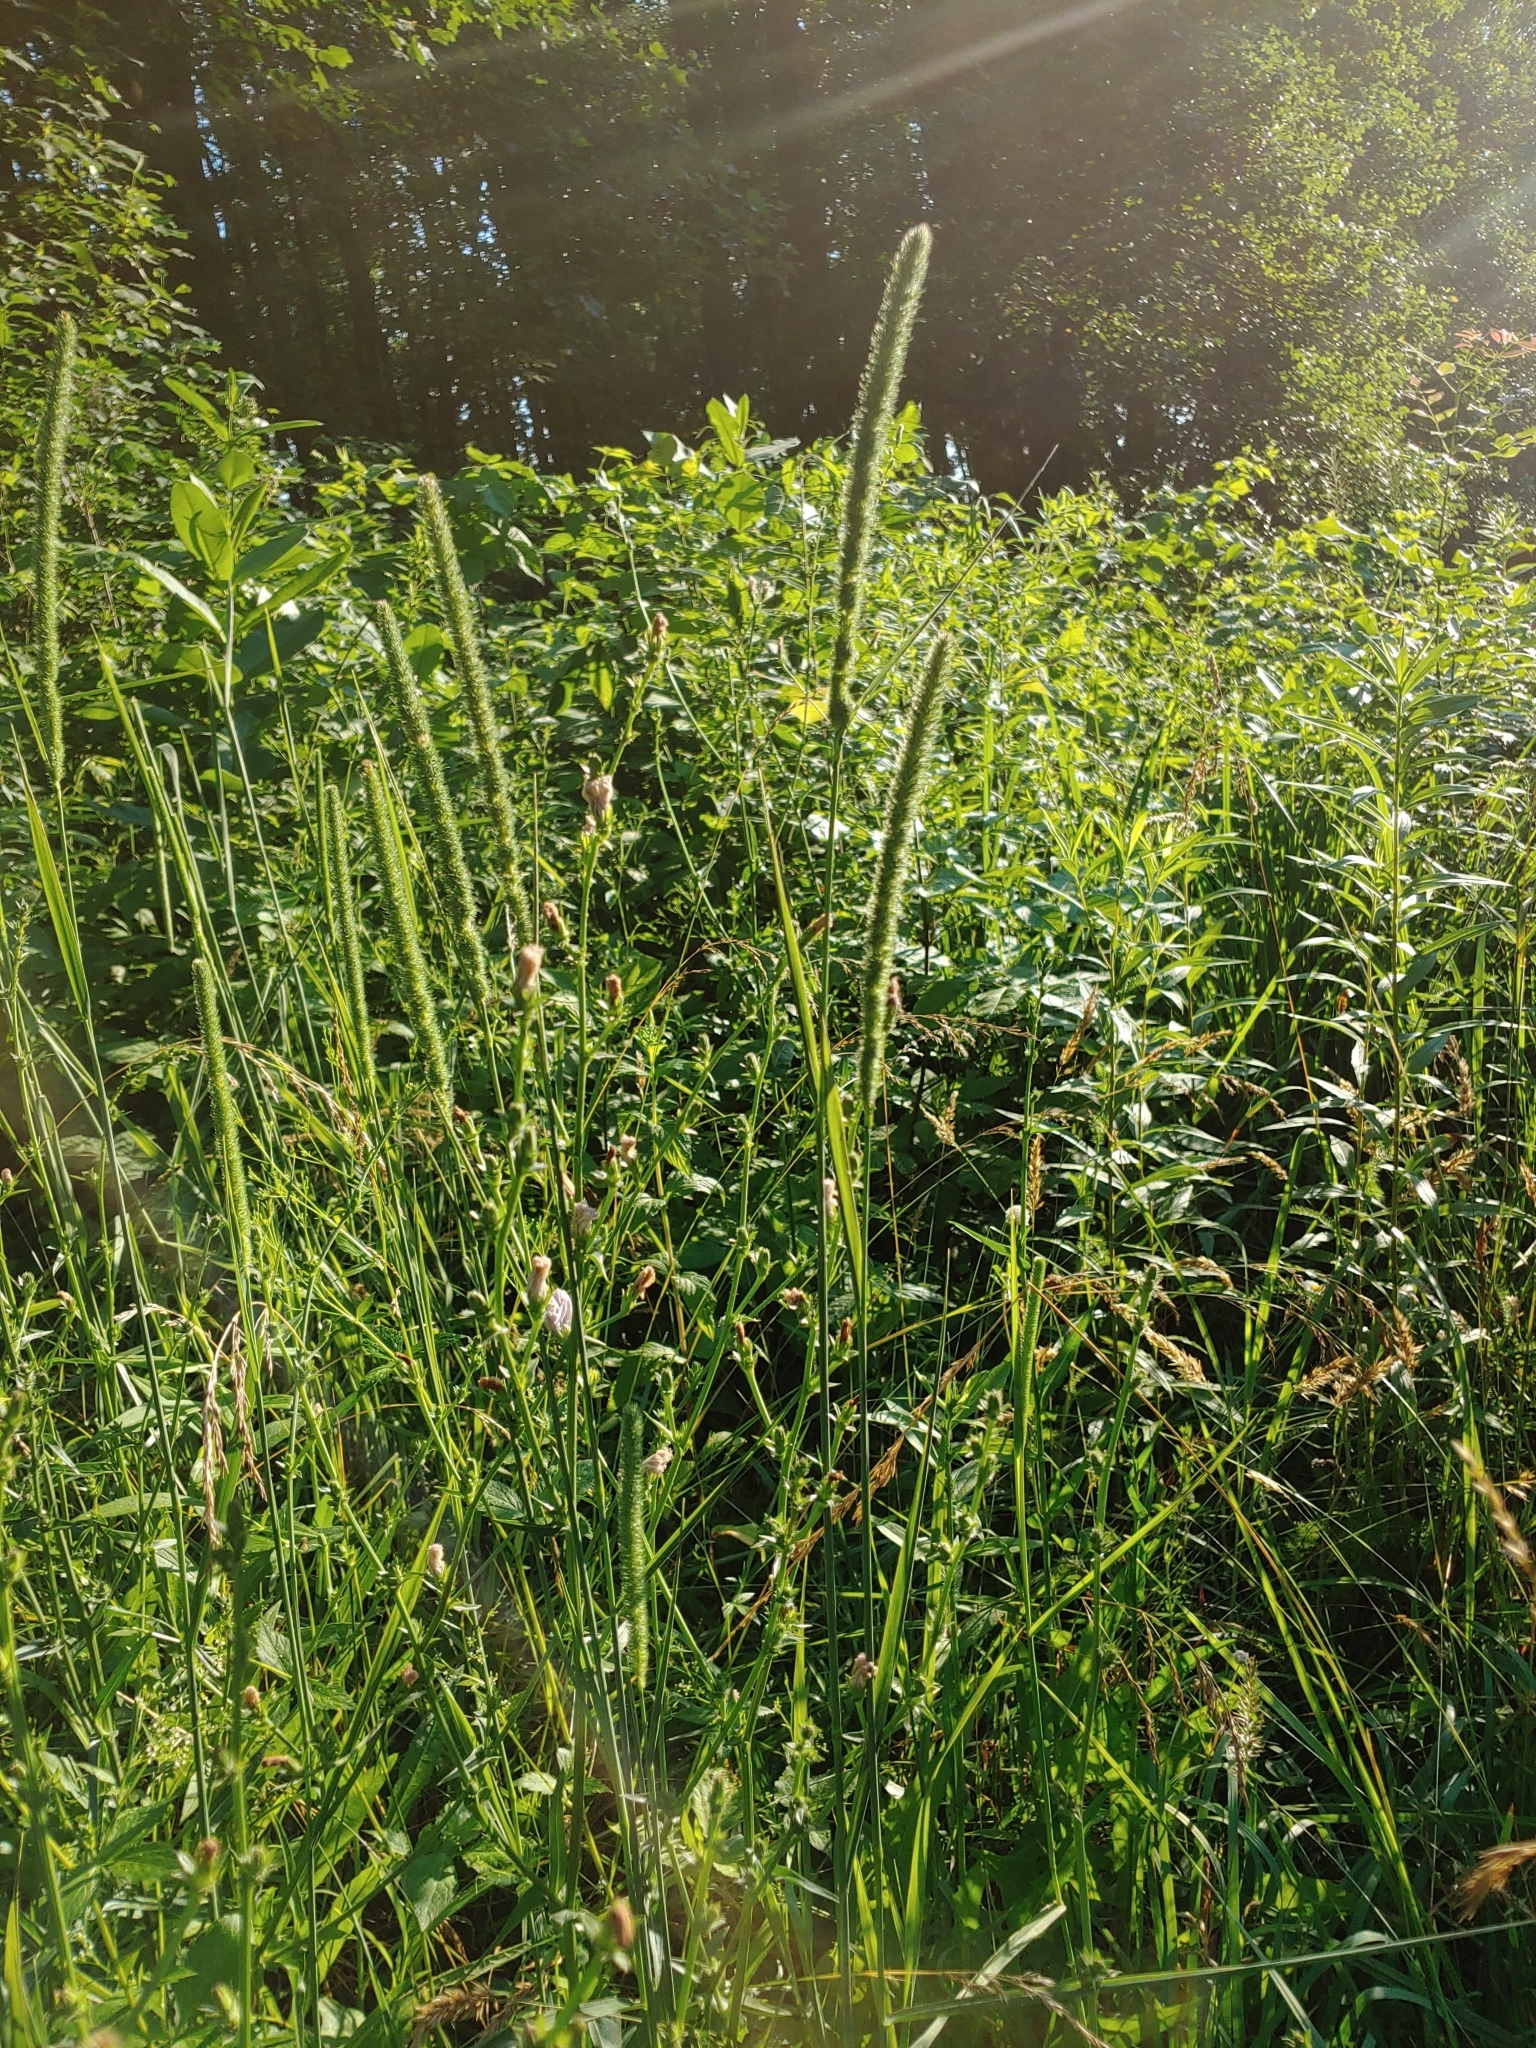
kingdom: Plantae
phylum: Tracheophyta
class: Liliopsida
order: Poales
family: Poaceae
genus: Phleum
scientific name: Phleum pratense
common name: Timothy grass
